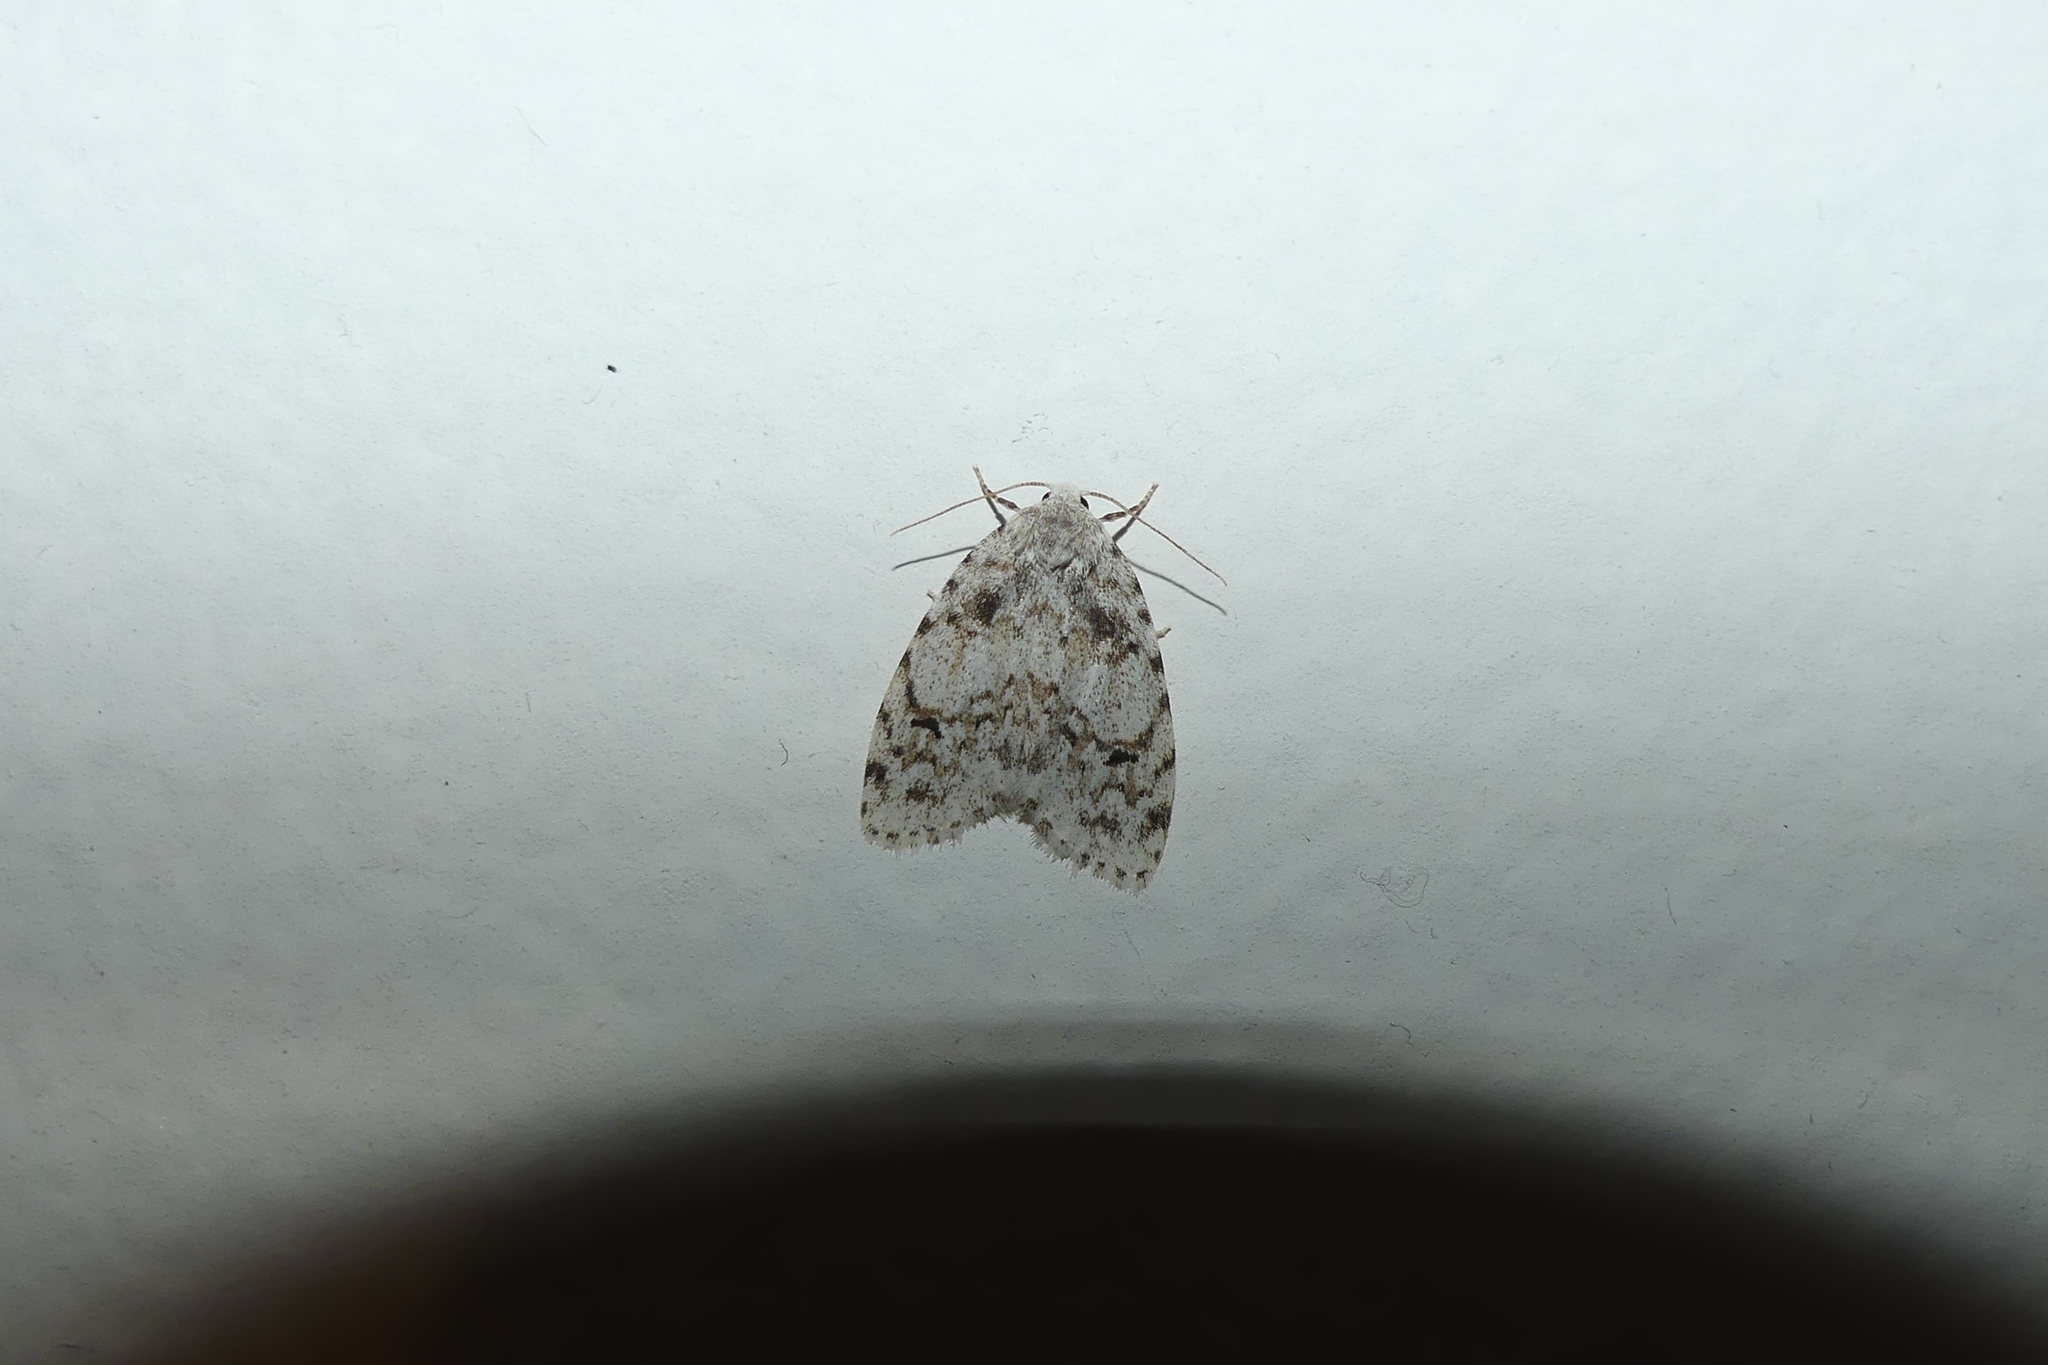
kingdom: Animalia
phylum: Arthropoda
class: Insecta
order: Lepidoptera
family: Erebidae
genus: Clemensia
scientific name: Clemensia albata
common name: Little white lichen moth
